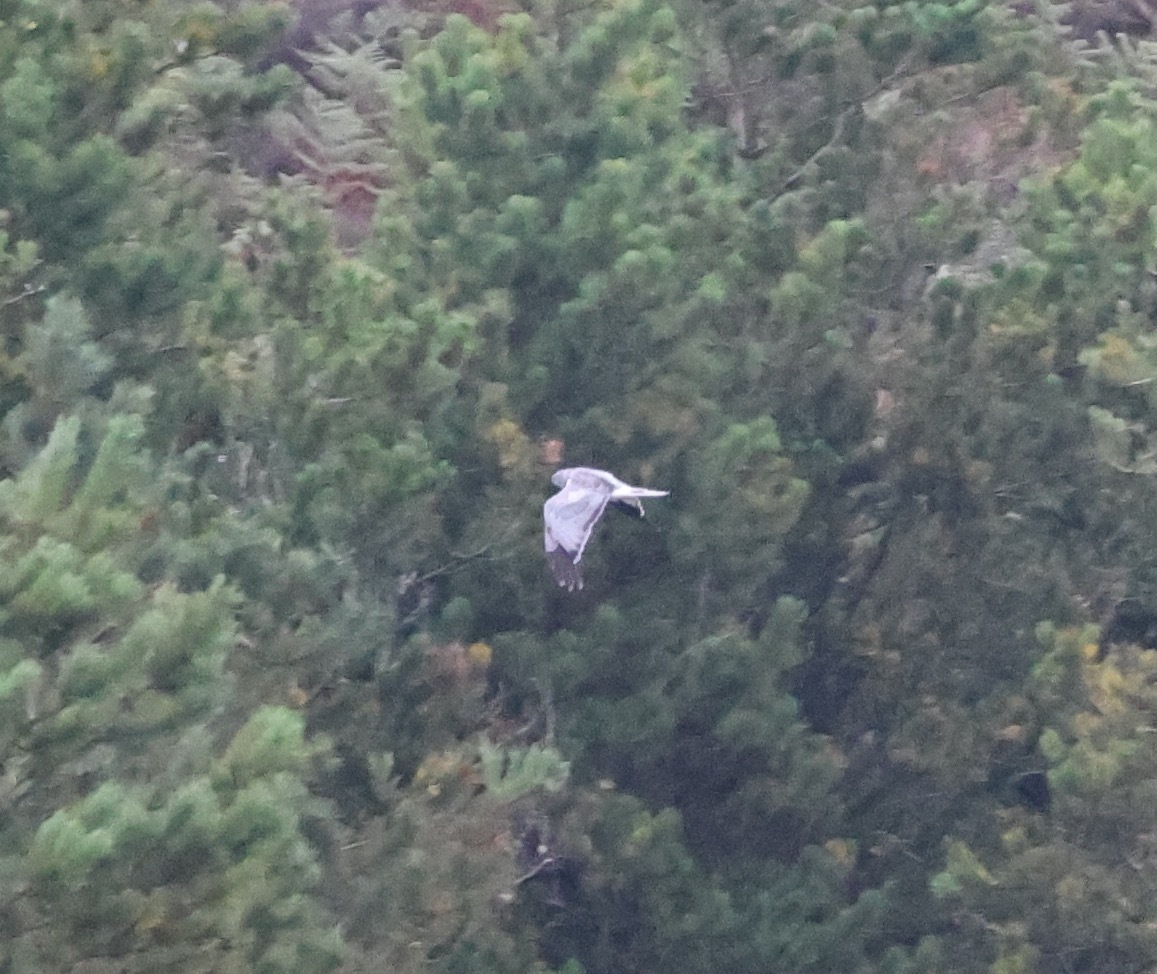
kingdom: Animalia
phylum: Chordata
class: Aves
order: Accipitriformes
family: Accipitridae
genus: Circus
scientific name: Circus cyaneus
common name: Hen harrier
